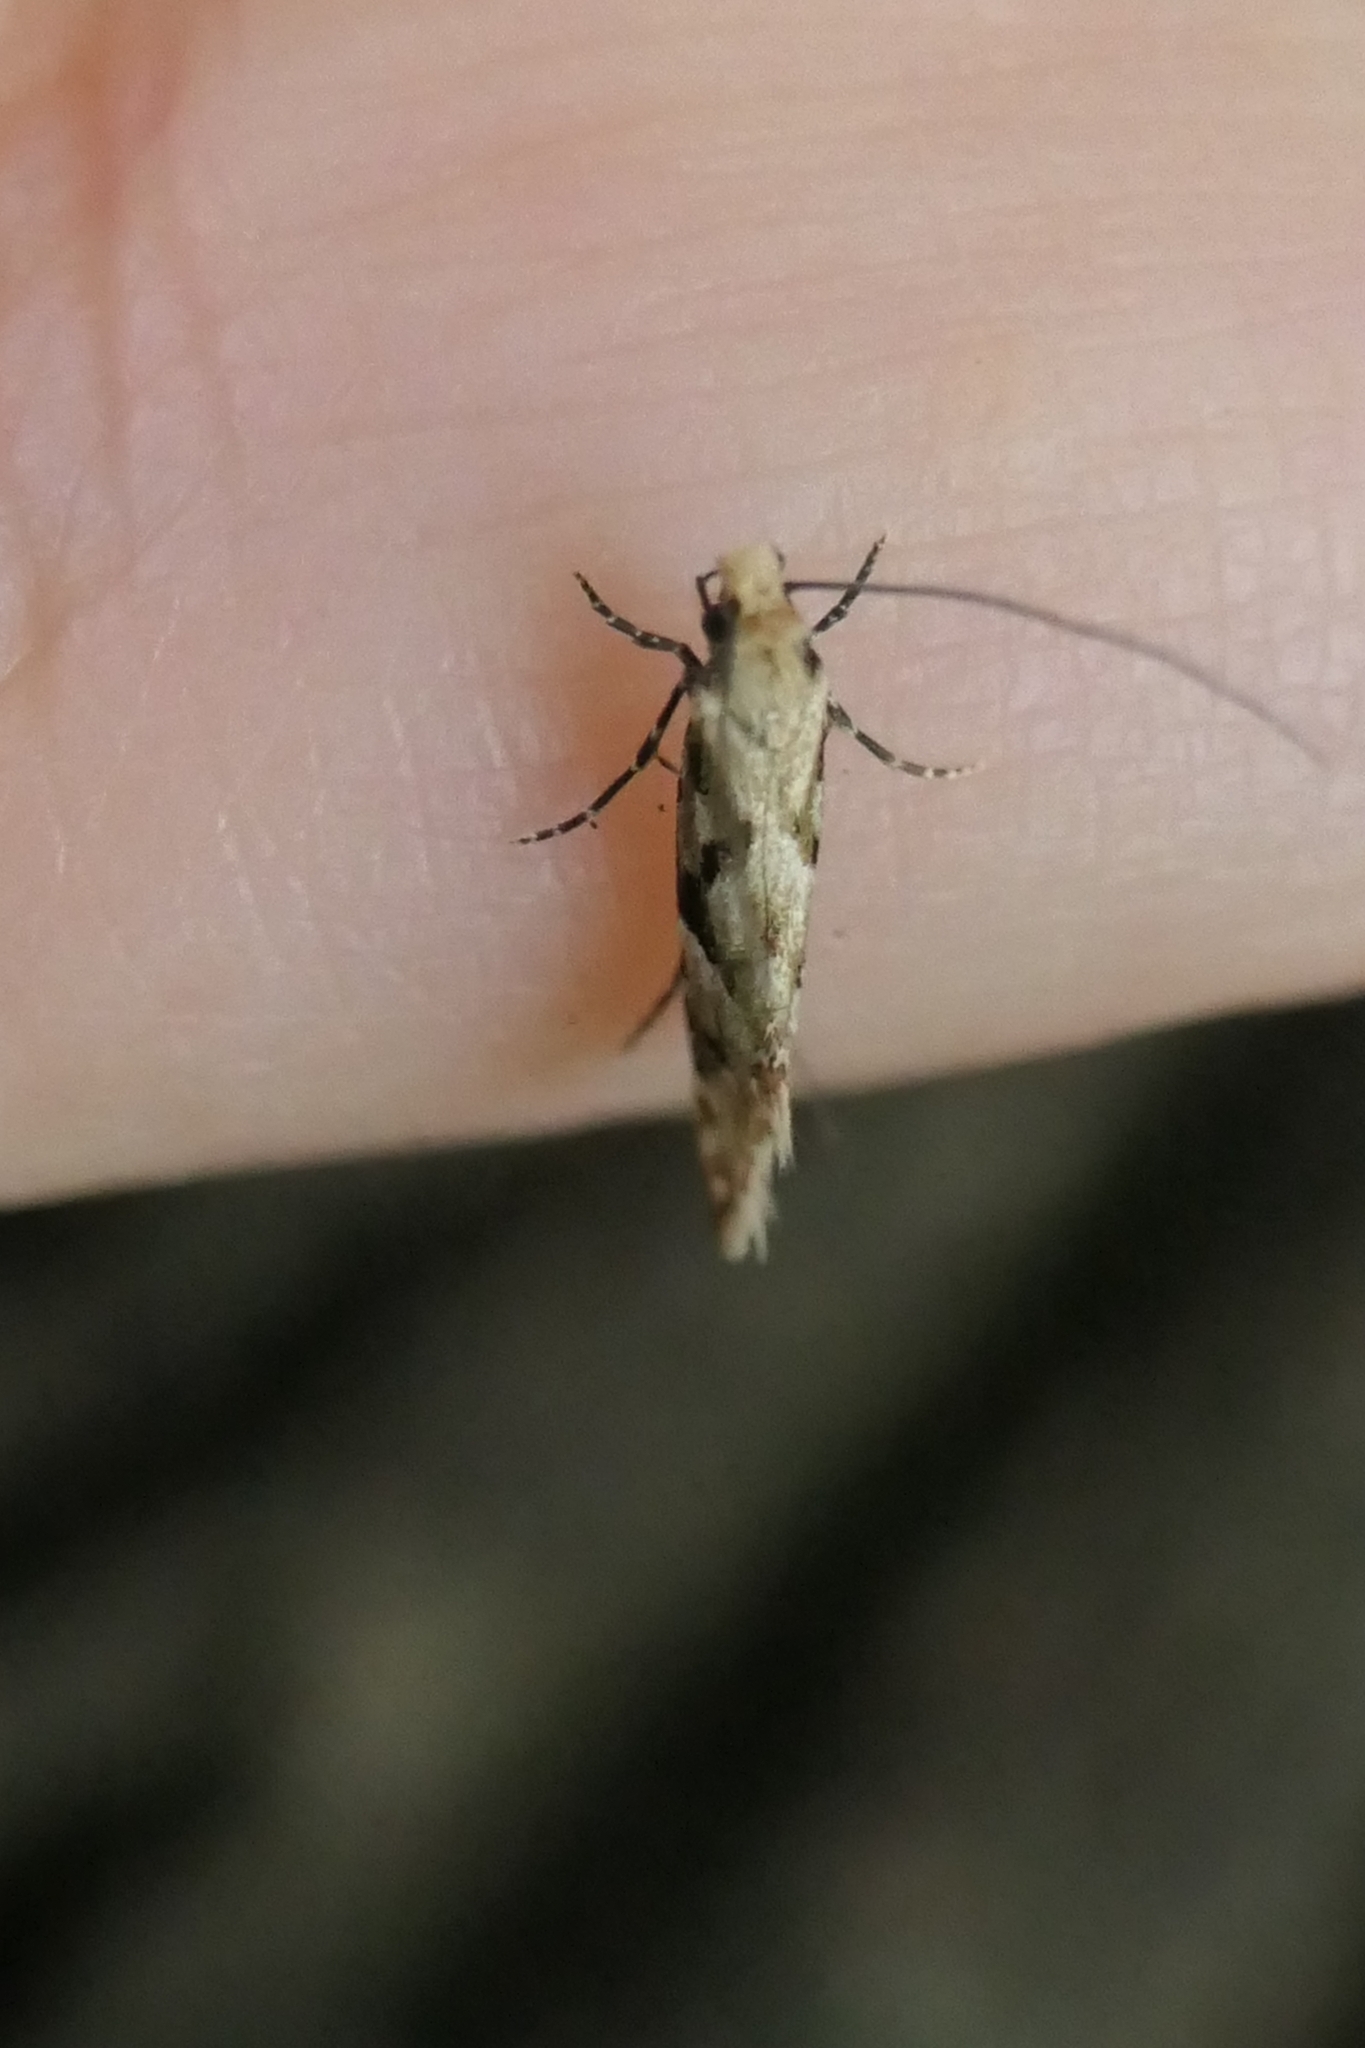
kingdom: Animalia
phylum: Arthropoda
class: Insecta
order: Lepidoptera
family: Tineidae
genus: Crypsitricha
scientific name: Crypsitricha mesotypa
